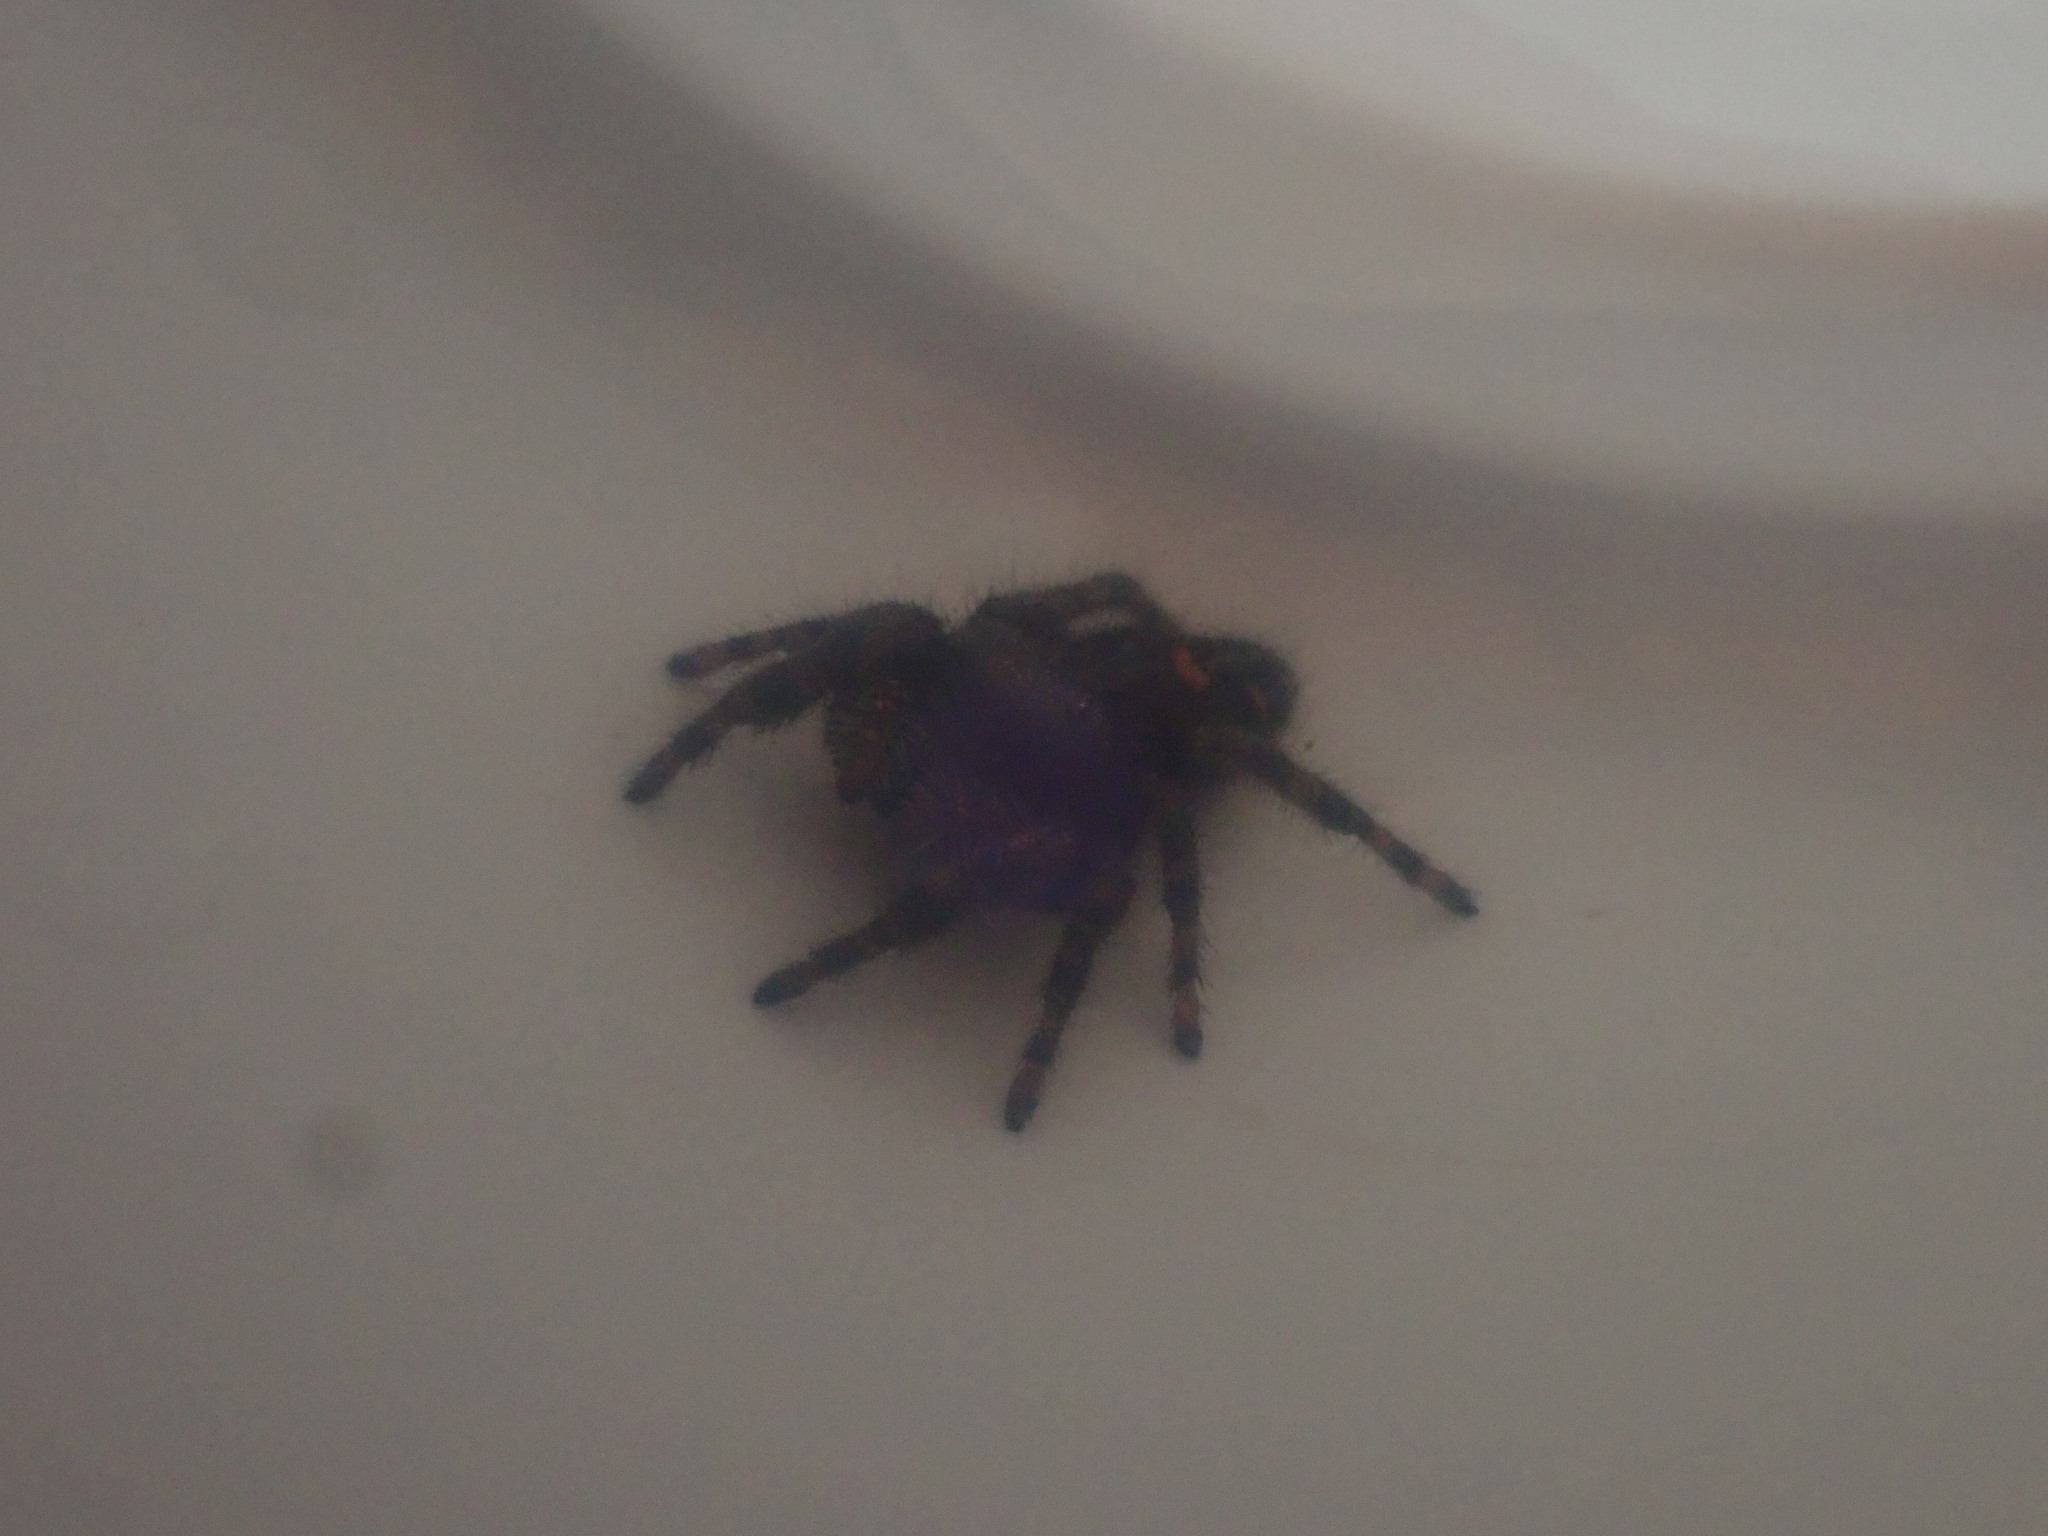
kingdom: Animalia
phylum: Arthropoda
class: Arachnida
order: Araneae
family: Salticidae
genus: Phidippus
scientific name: Phidippus audax
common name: Bold jumper
